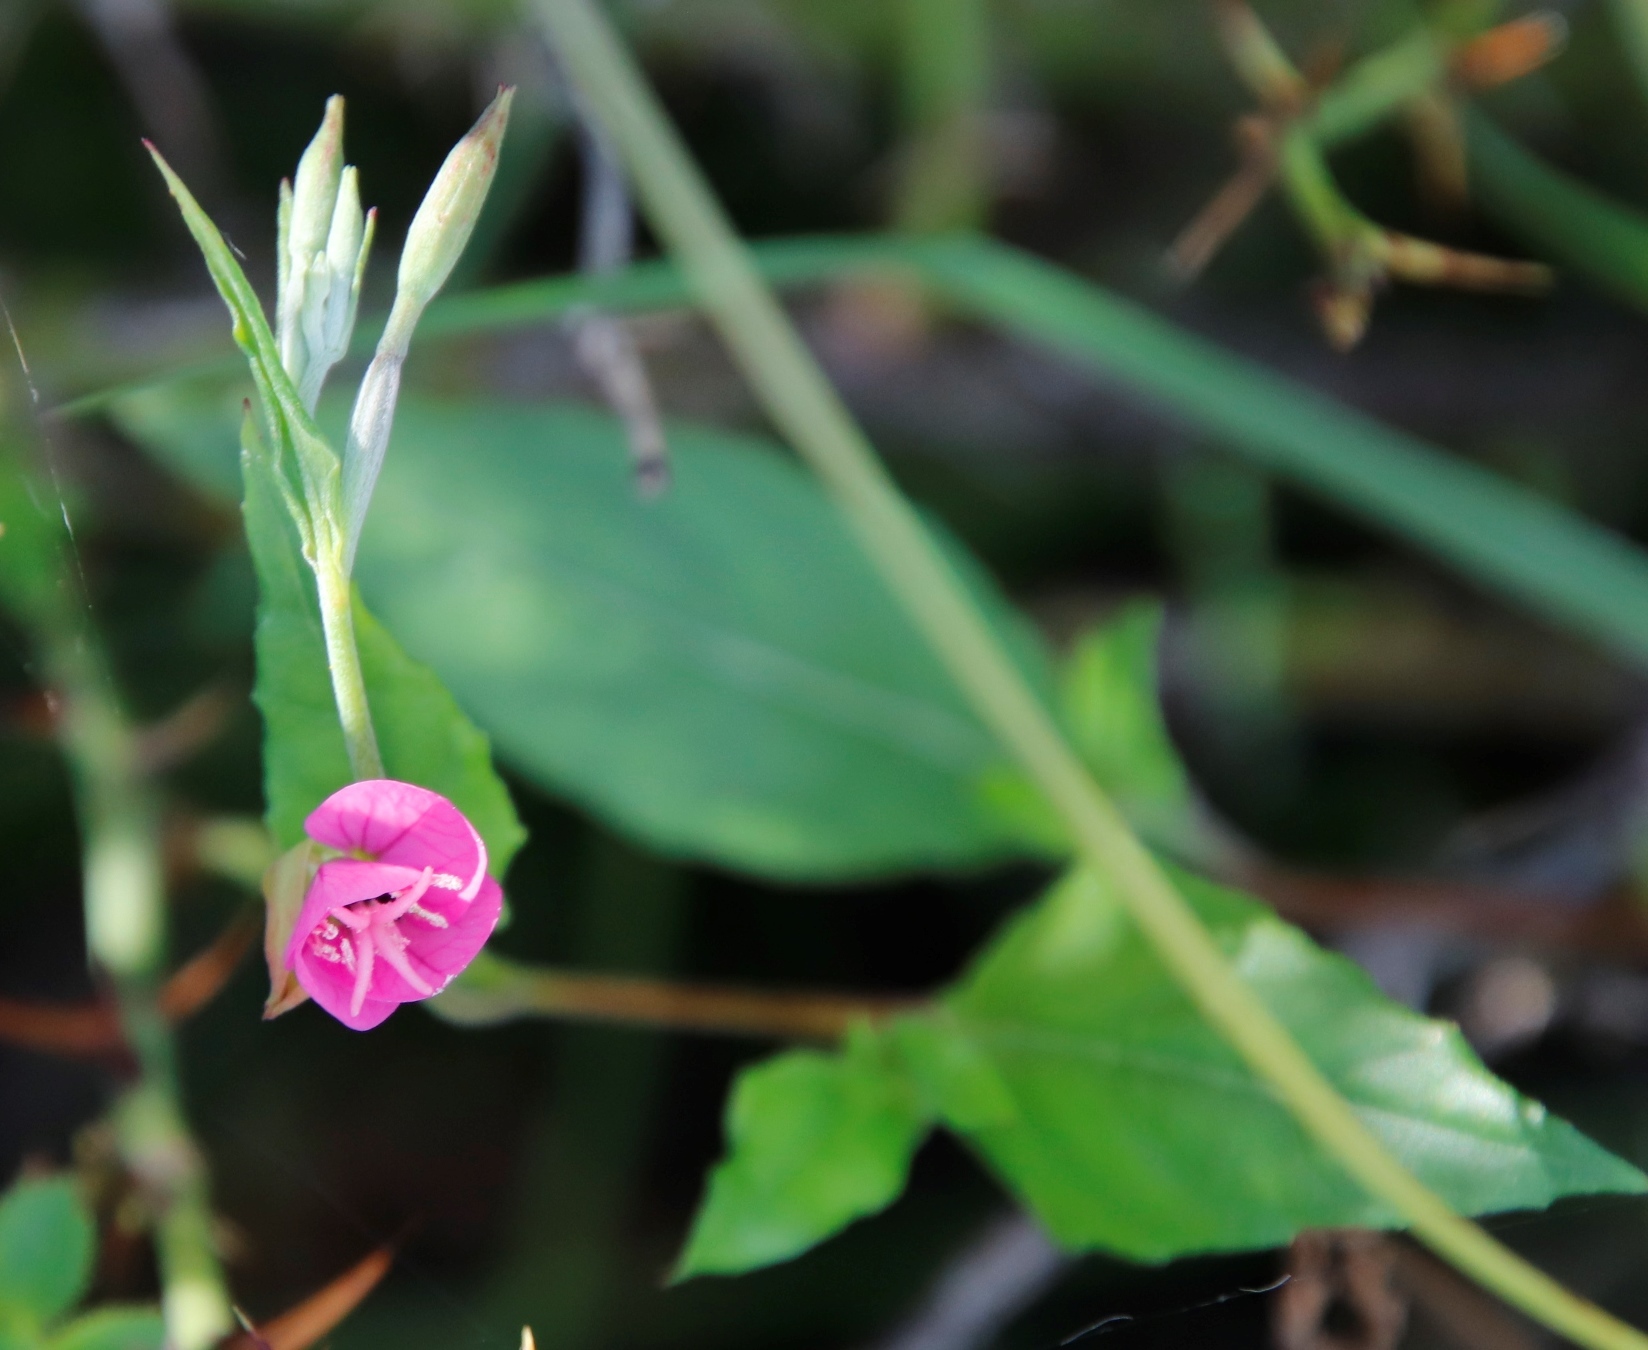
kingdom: Plantae
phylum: Tracheophyta
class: Magnoliopsida
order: Myrtales
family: Onagraceae
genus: Oenothera
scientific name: Oenothera rosea
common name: Rosy evening-primrose
